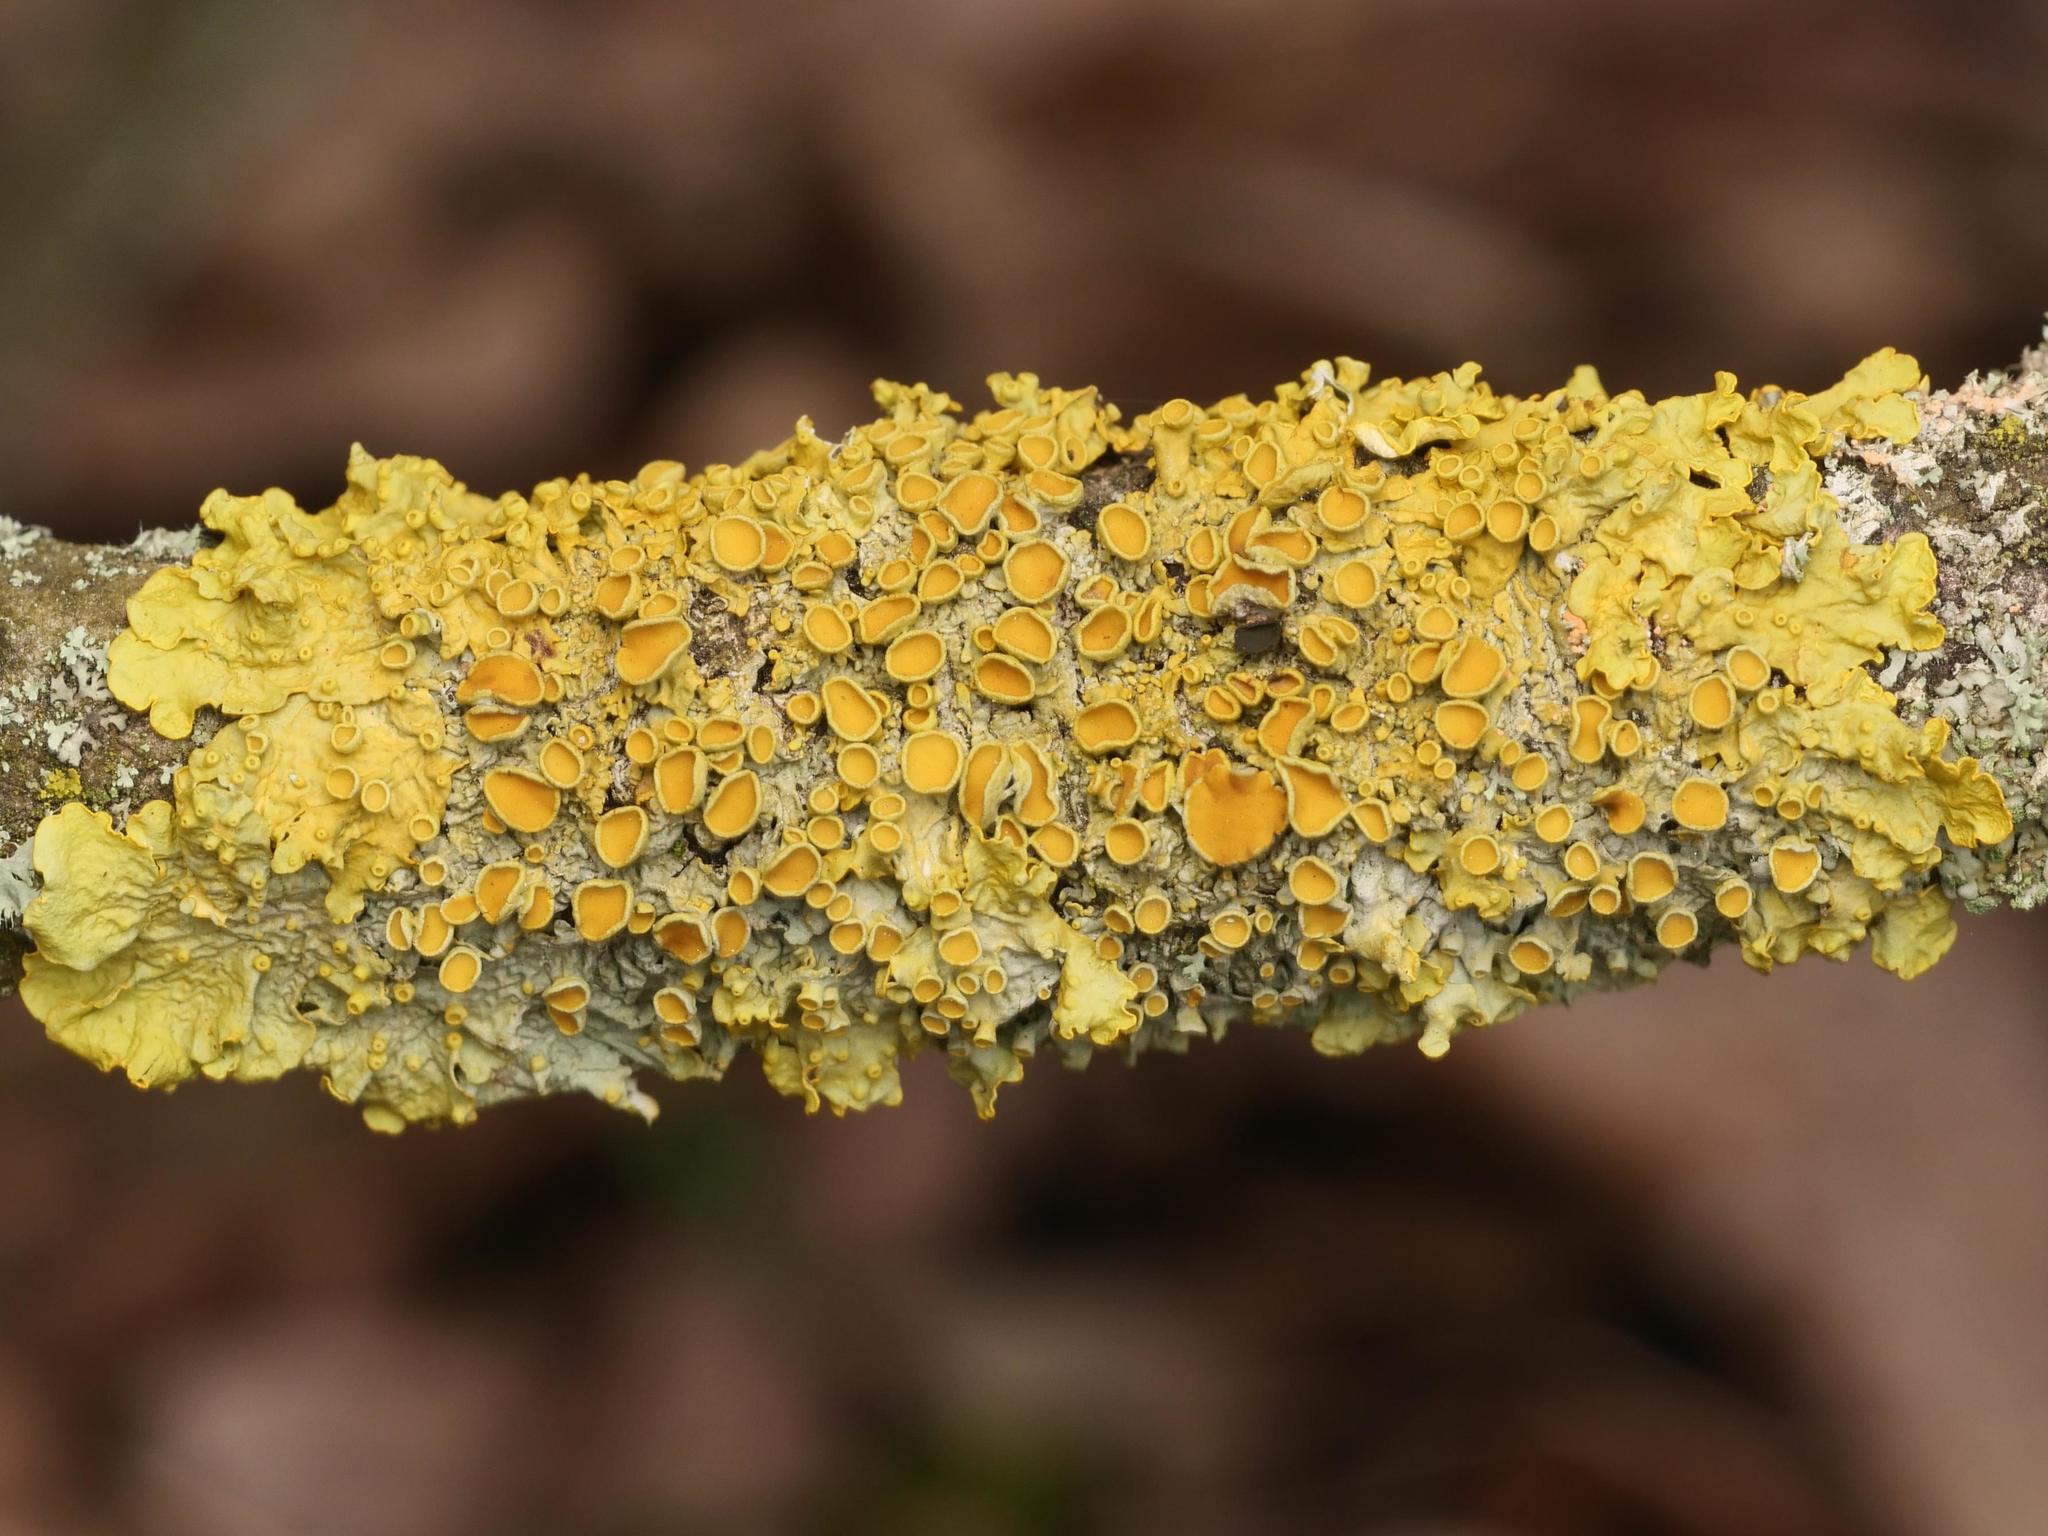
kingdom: Fungi
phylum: Ascomycota
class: Lecanoromycetes
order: Teloschistales
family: Teloschistaceae
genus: Xanthoria
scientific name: Xanthoria parietina
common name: Common orange lichen
